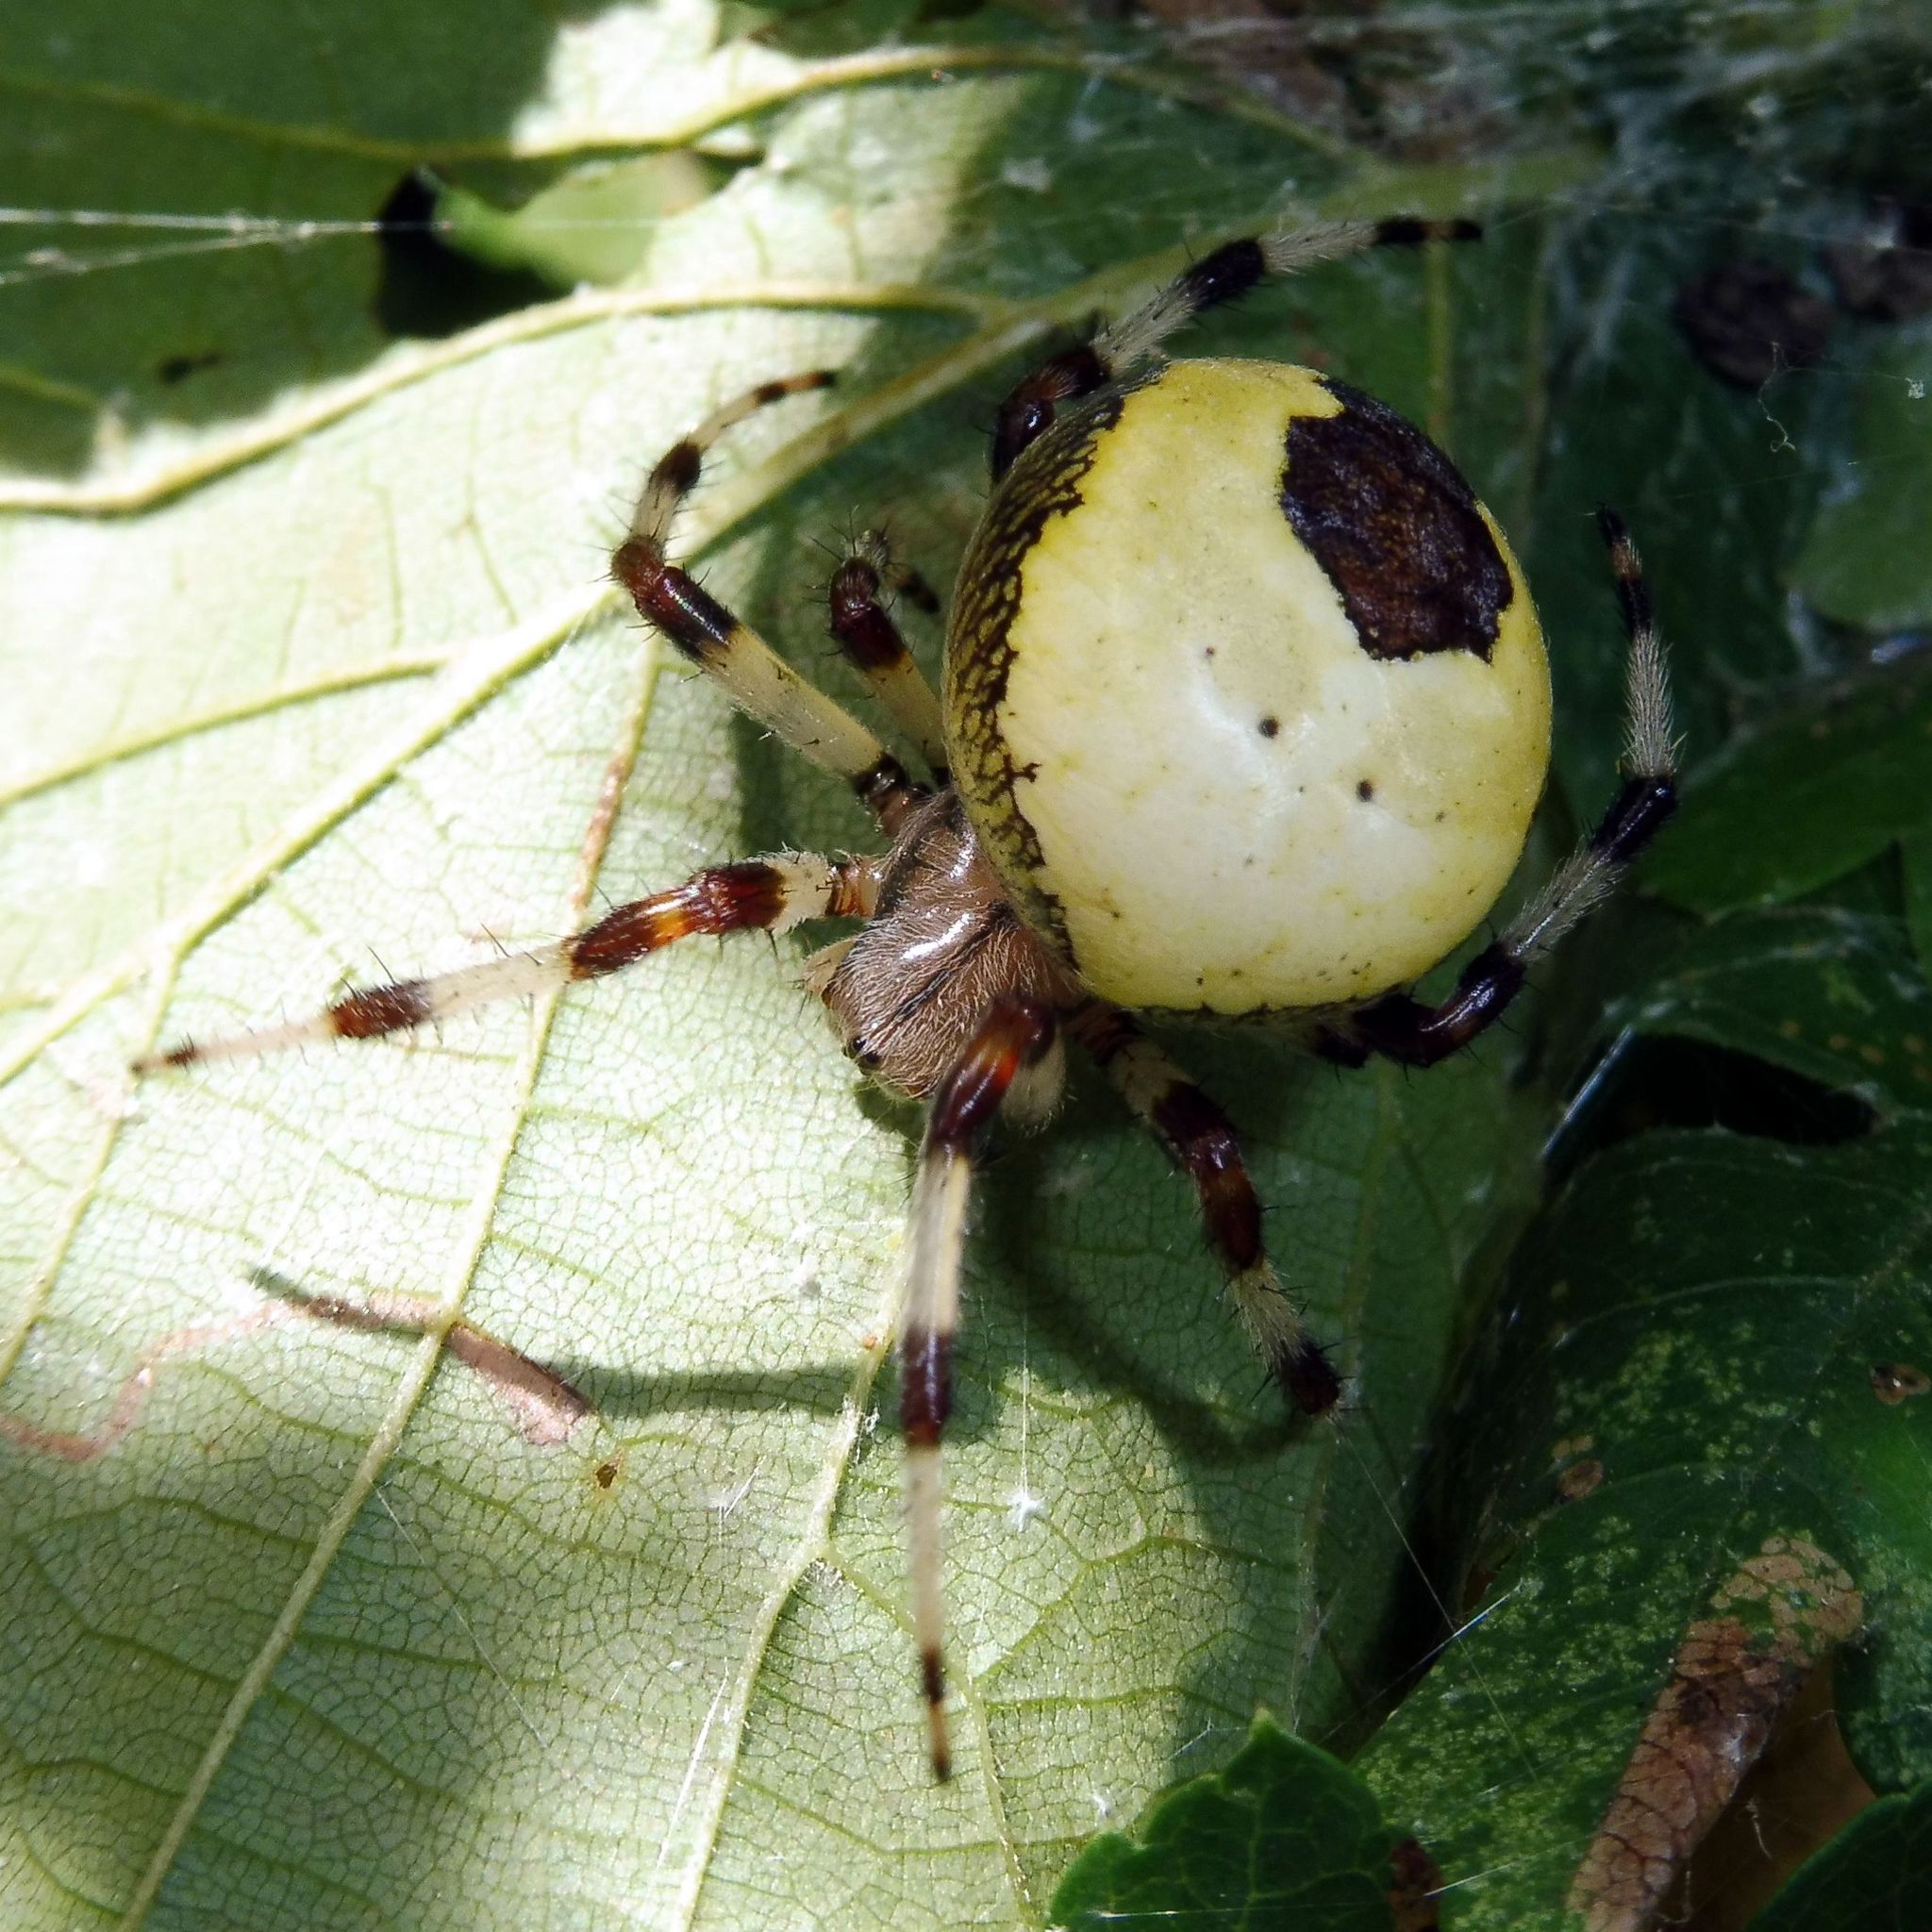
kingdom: Animalia
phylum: Arthropoda
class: Arachnida
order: Araneae
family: Araneidae
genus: Araneus
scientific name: Araneus marmoreus
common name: Marbled orbweaver
